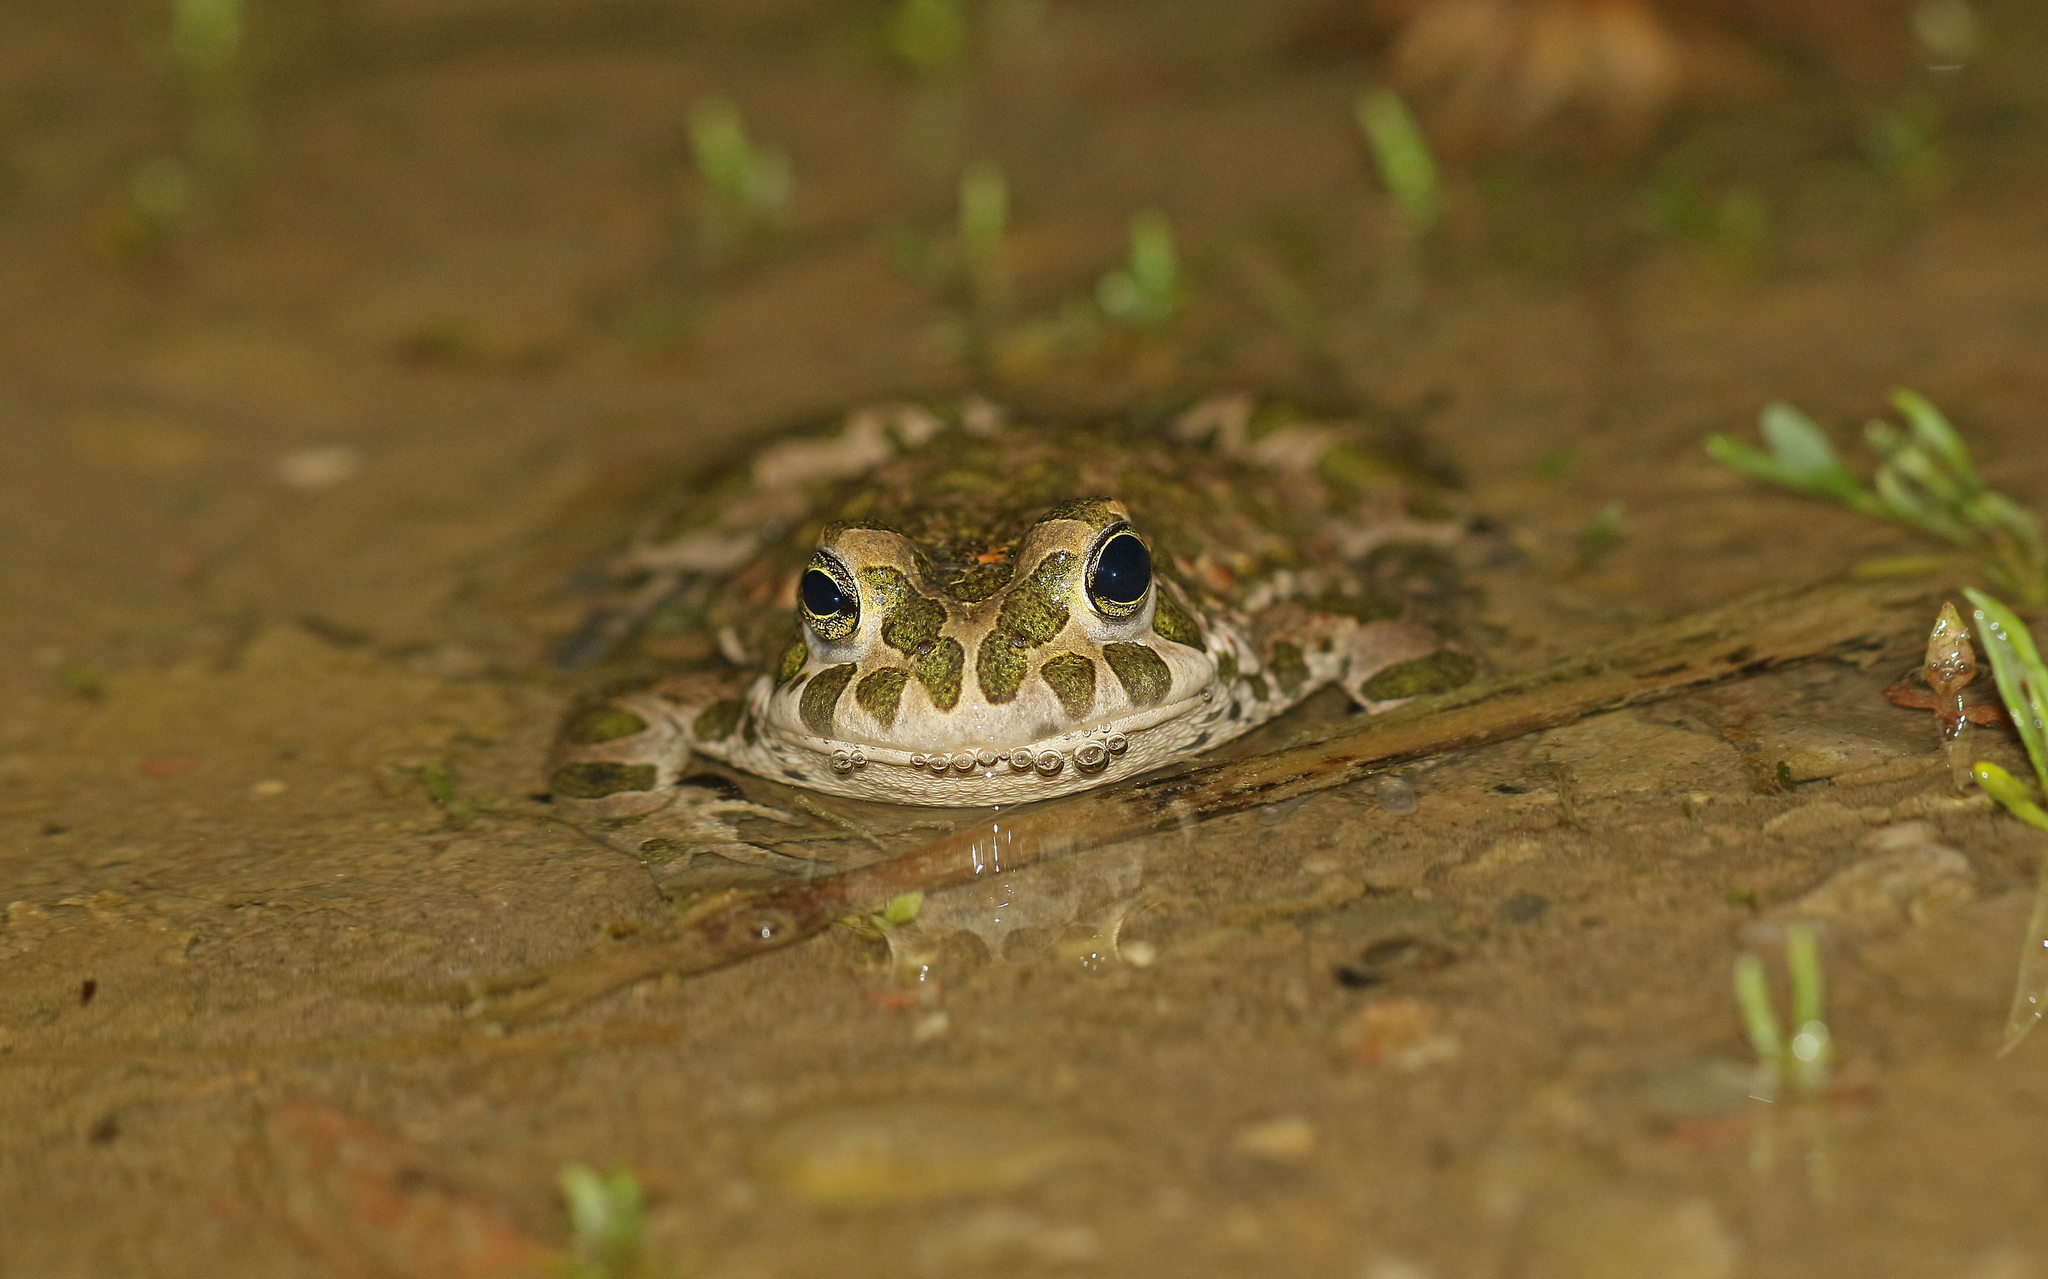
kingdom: Animalia
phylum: Chordata
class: Amphibia
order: Anura
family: Bufonidae
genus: Bufotes
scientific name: Bufotes viridis
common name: European green toad
